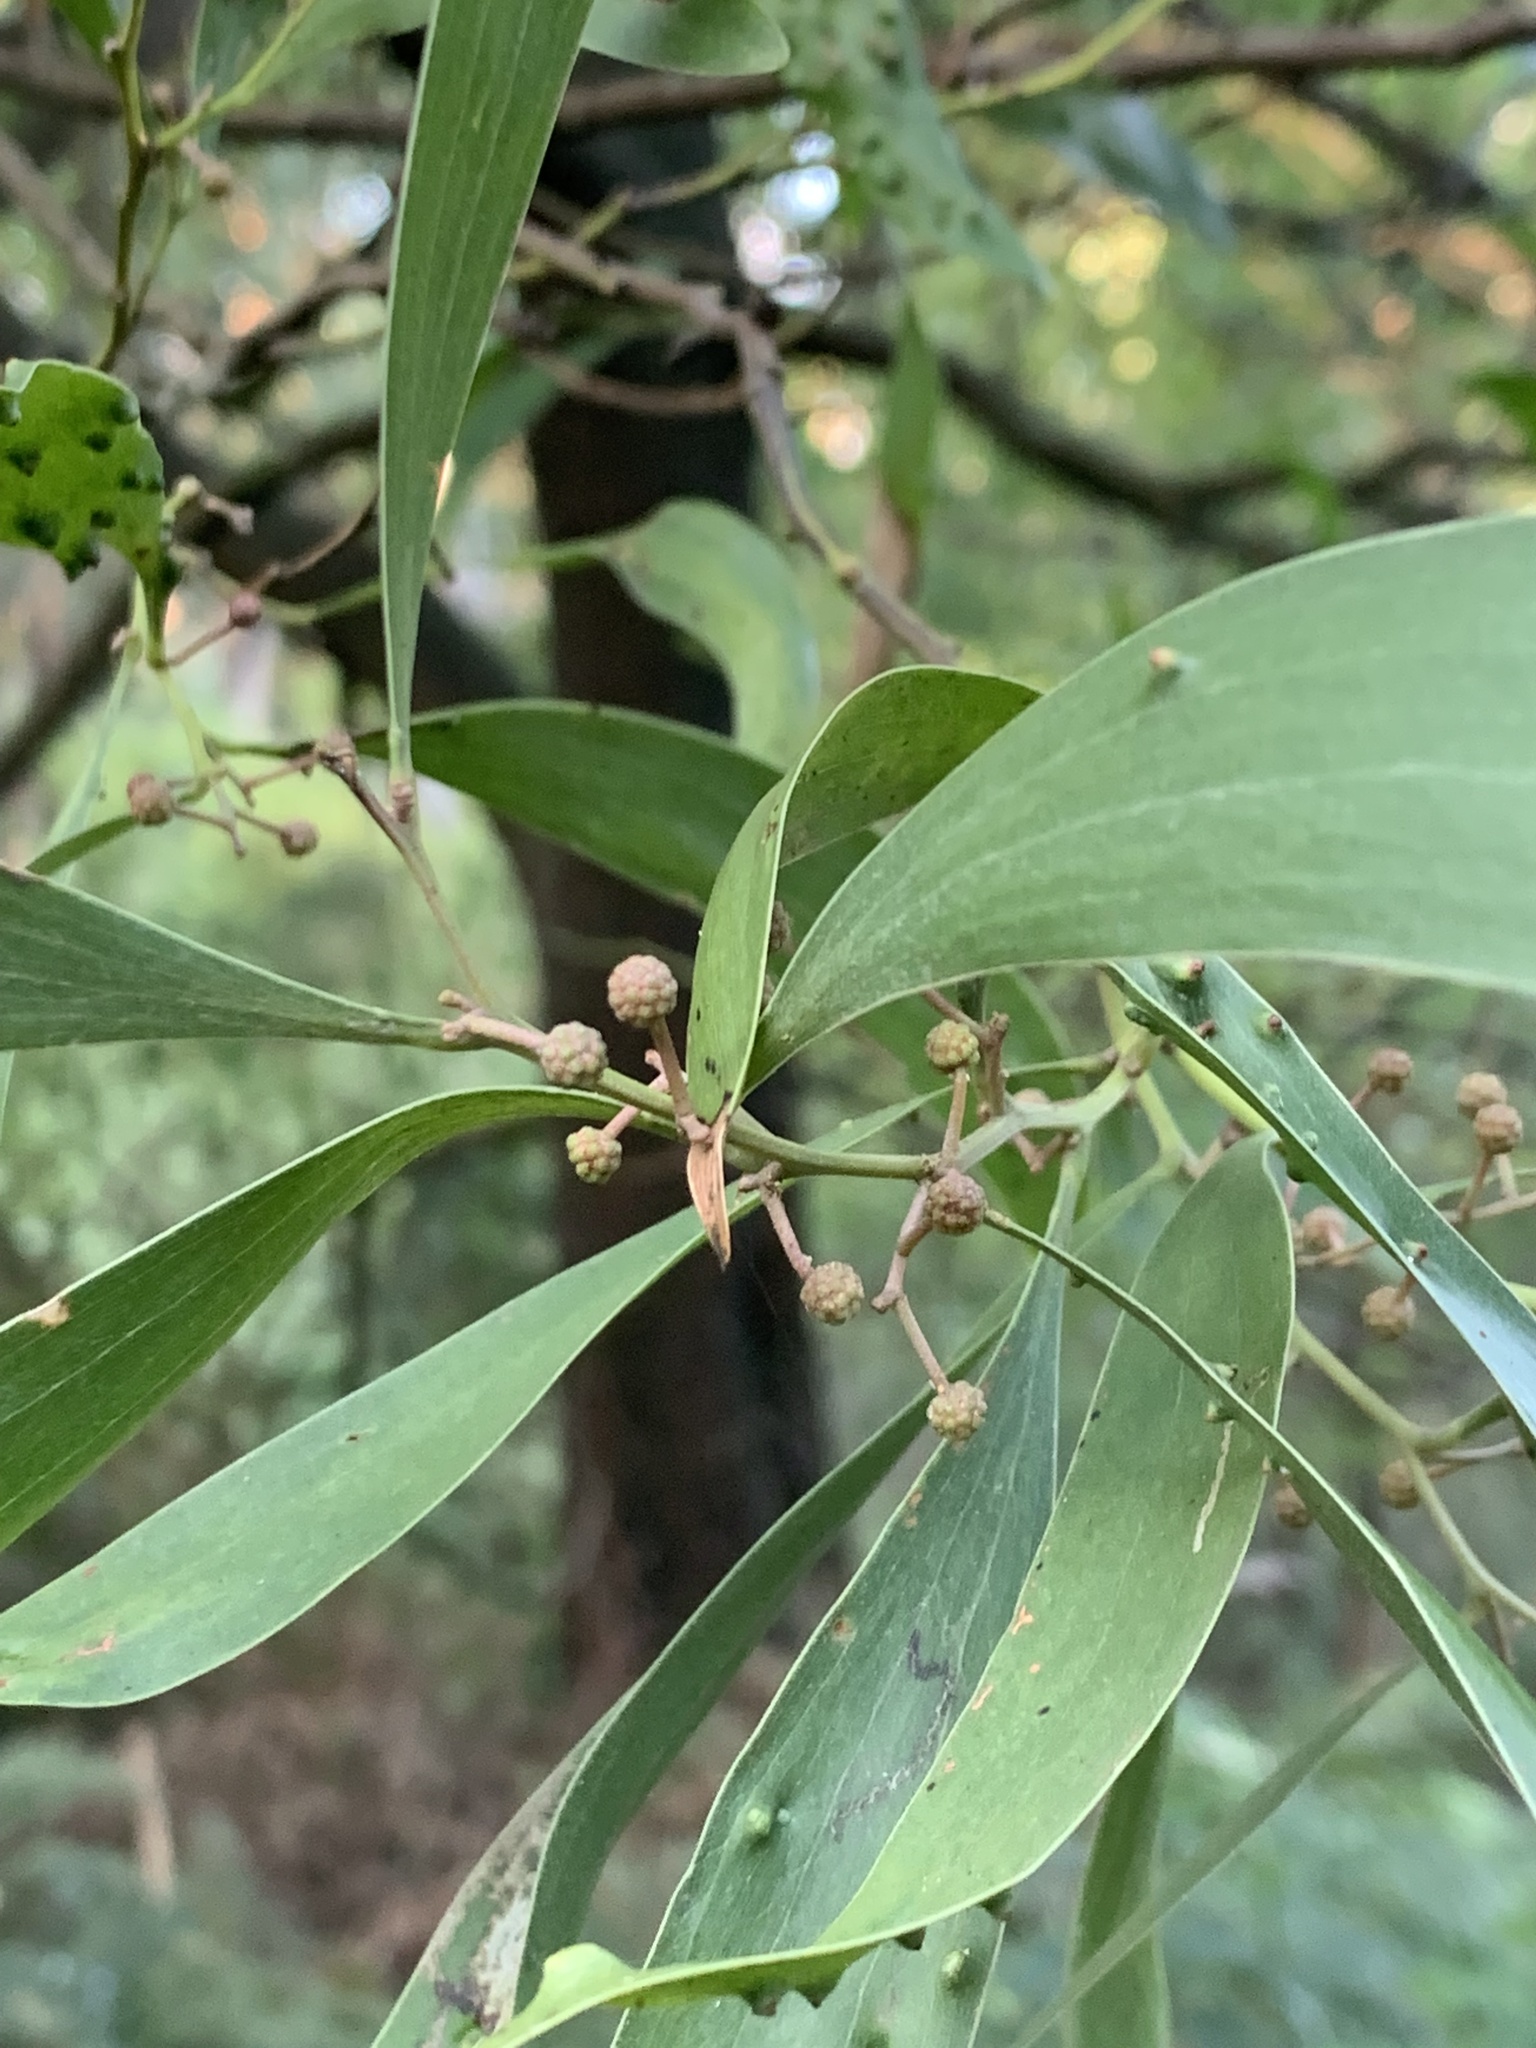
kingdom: Plantae
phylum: Tracheophyta
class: Magnoliopsida
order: Fabales
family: Fabaceae
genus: Acacia
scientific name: Acacia melanoxylon
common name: Blackwood
